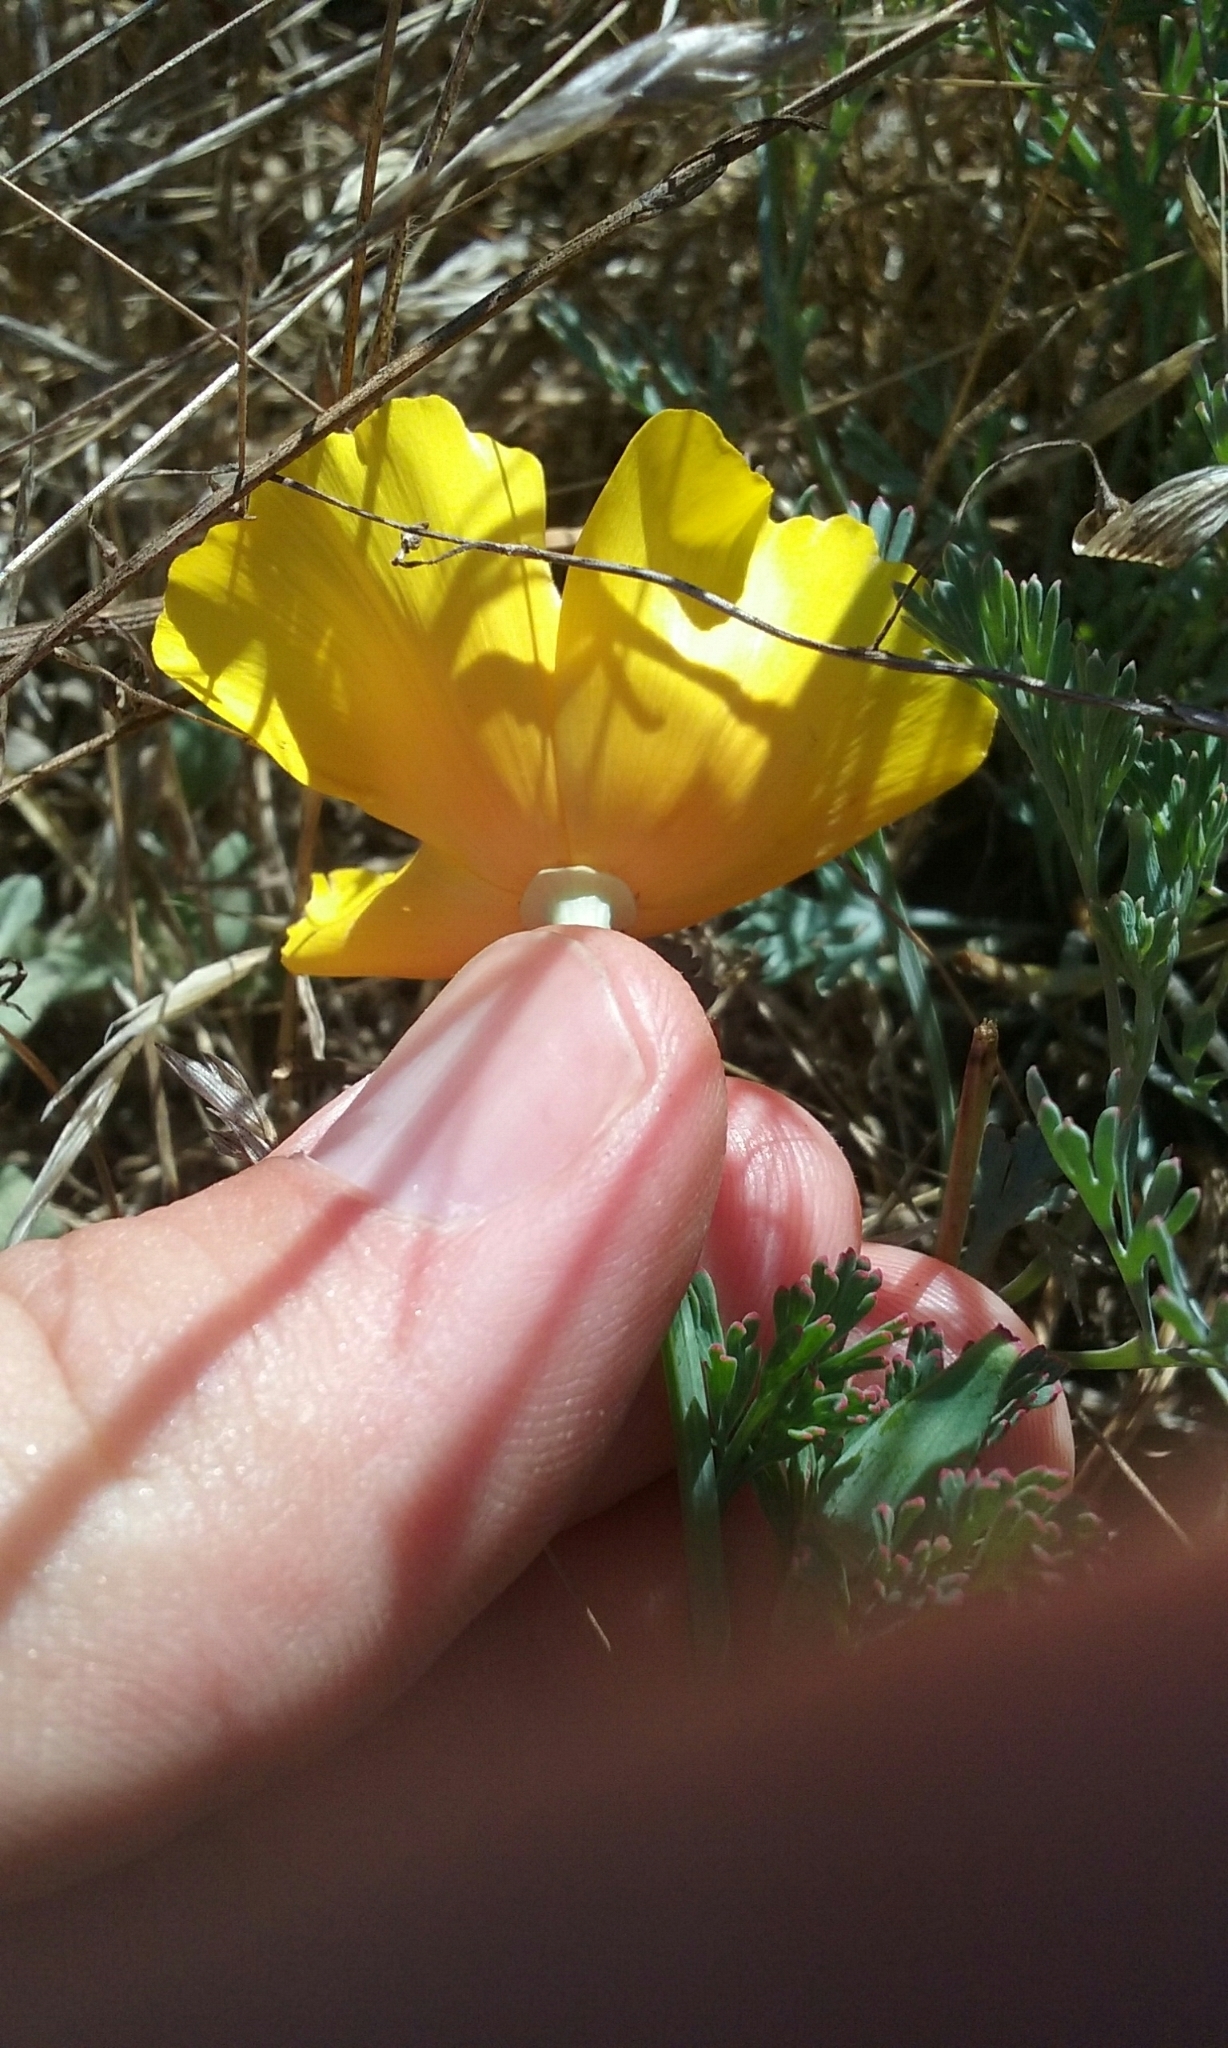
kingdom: Plantae
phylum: Tracheophyta
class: Magnoliopsida
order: Ranunculales
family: Papaveraceae
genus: Eschscholzia
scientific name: Eschscholzia californica
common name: California poppy
